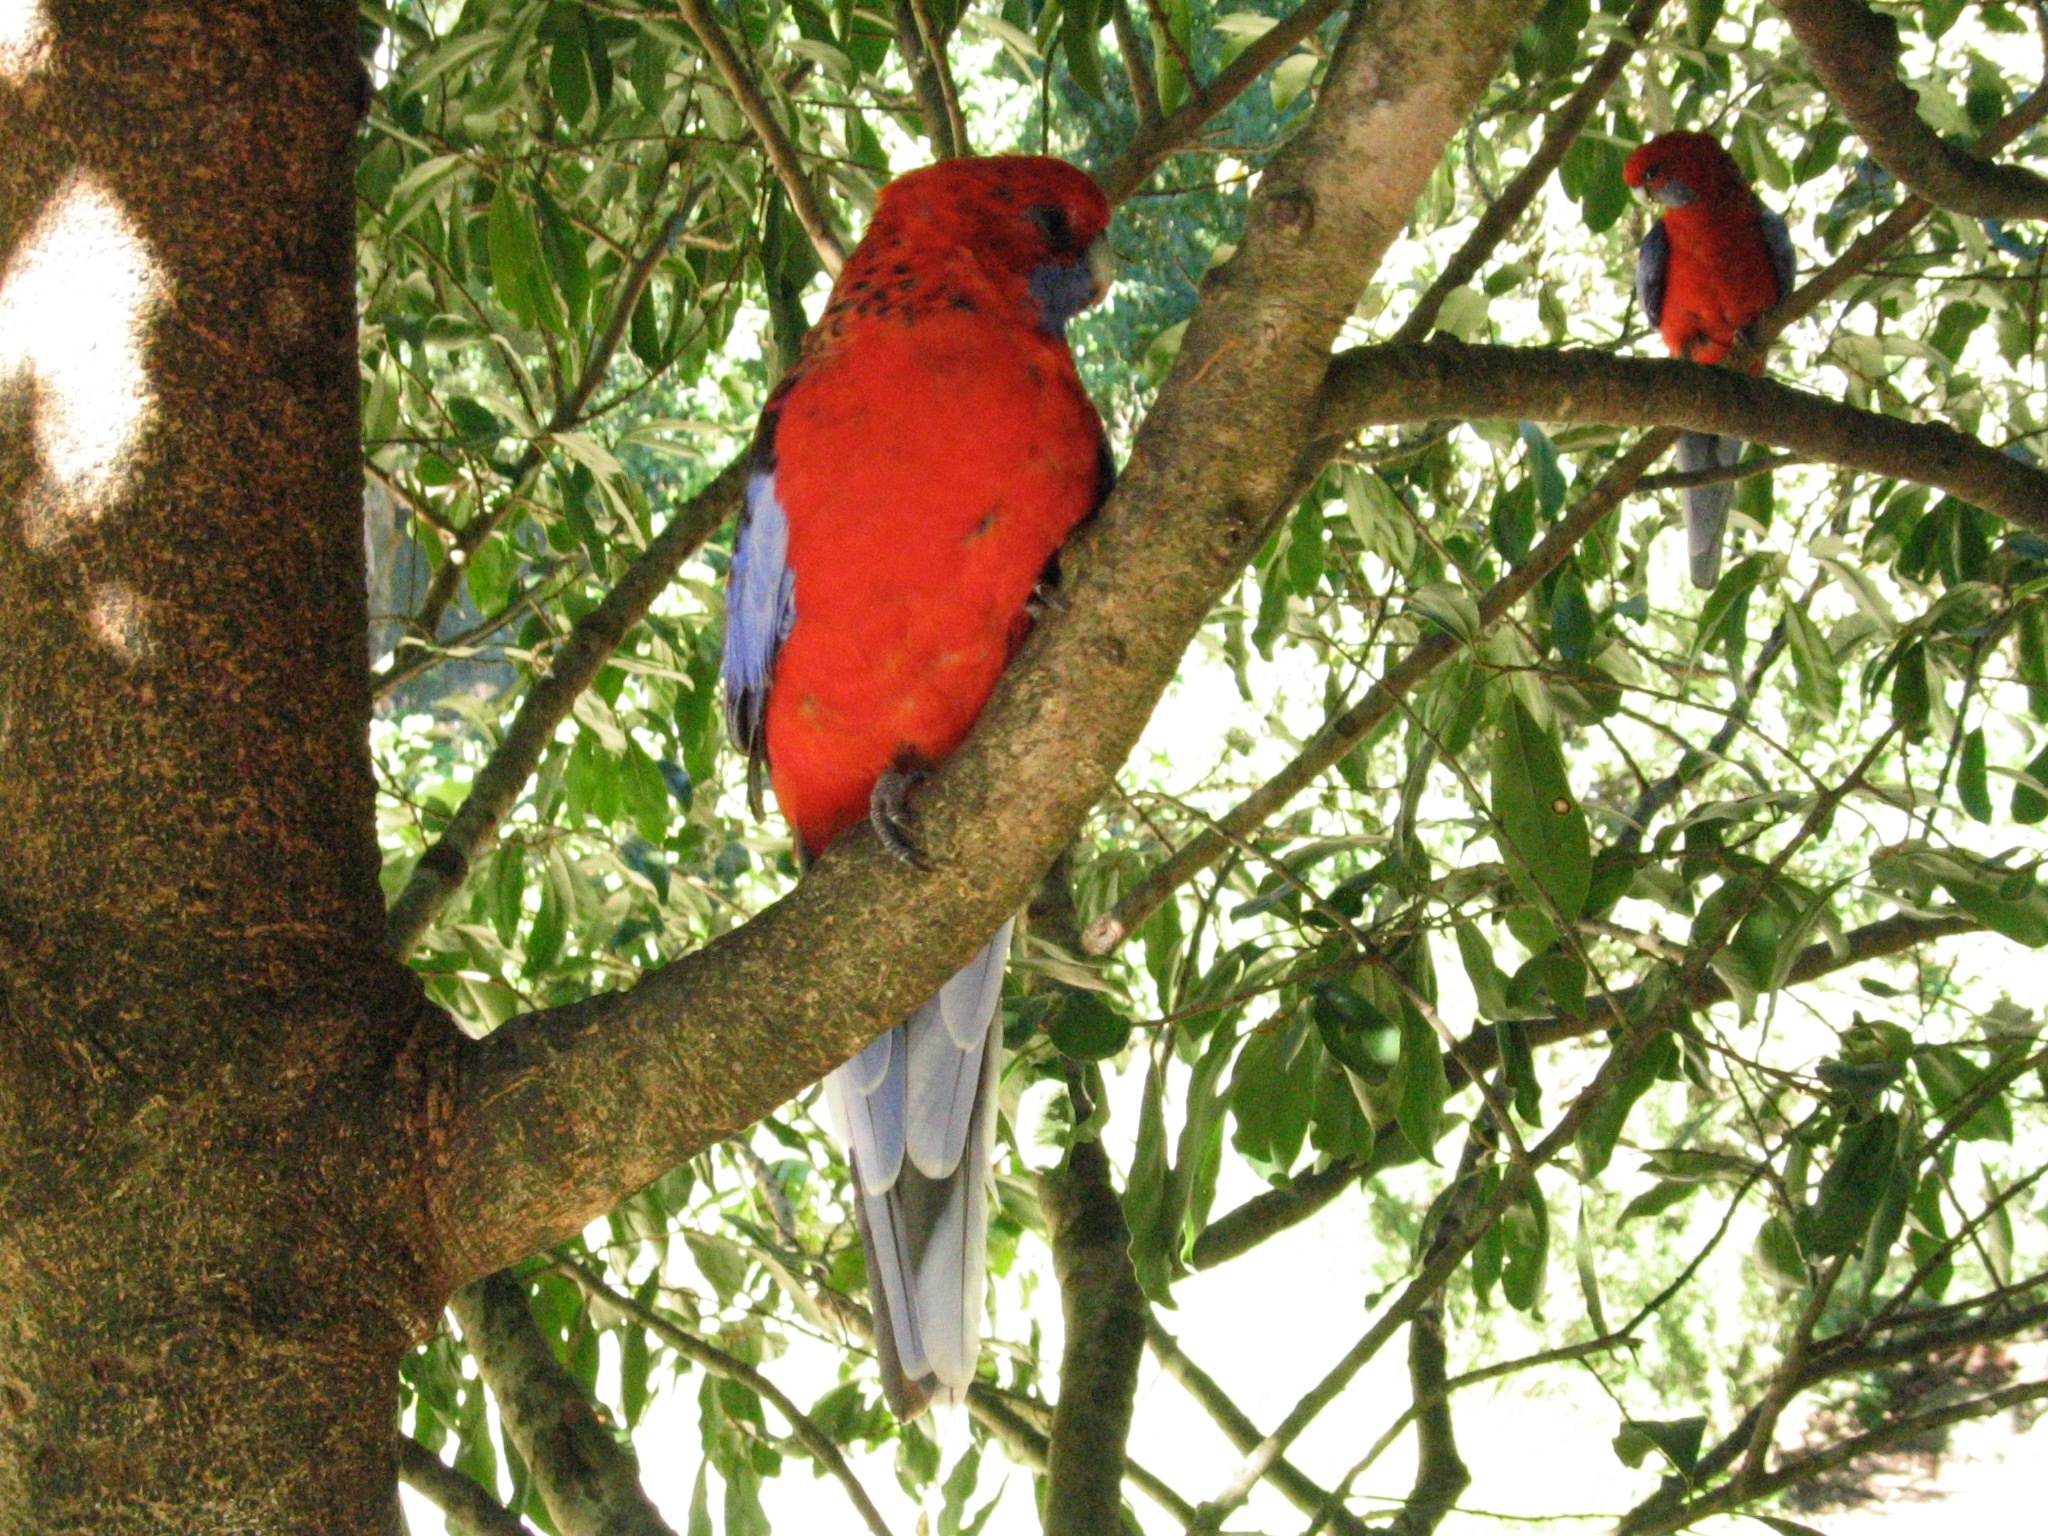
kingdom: Animalia
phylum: Chordata
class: Aves
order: Psittaciformes
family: Psittacidae
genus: Platycercus
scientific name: Platycercus elegans
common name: Crimson rosella
